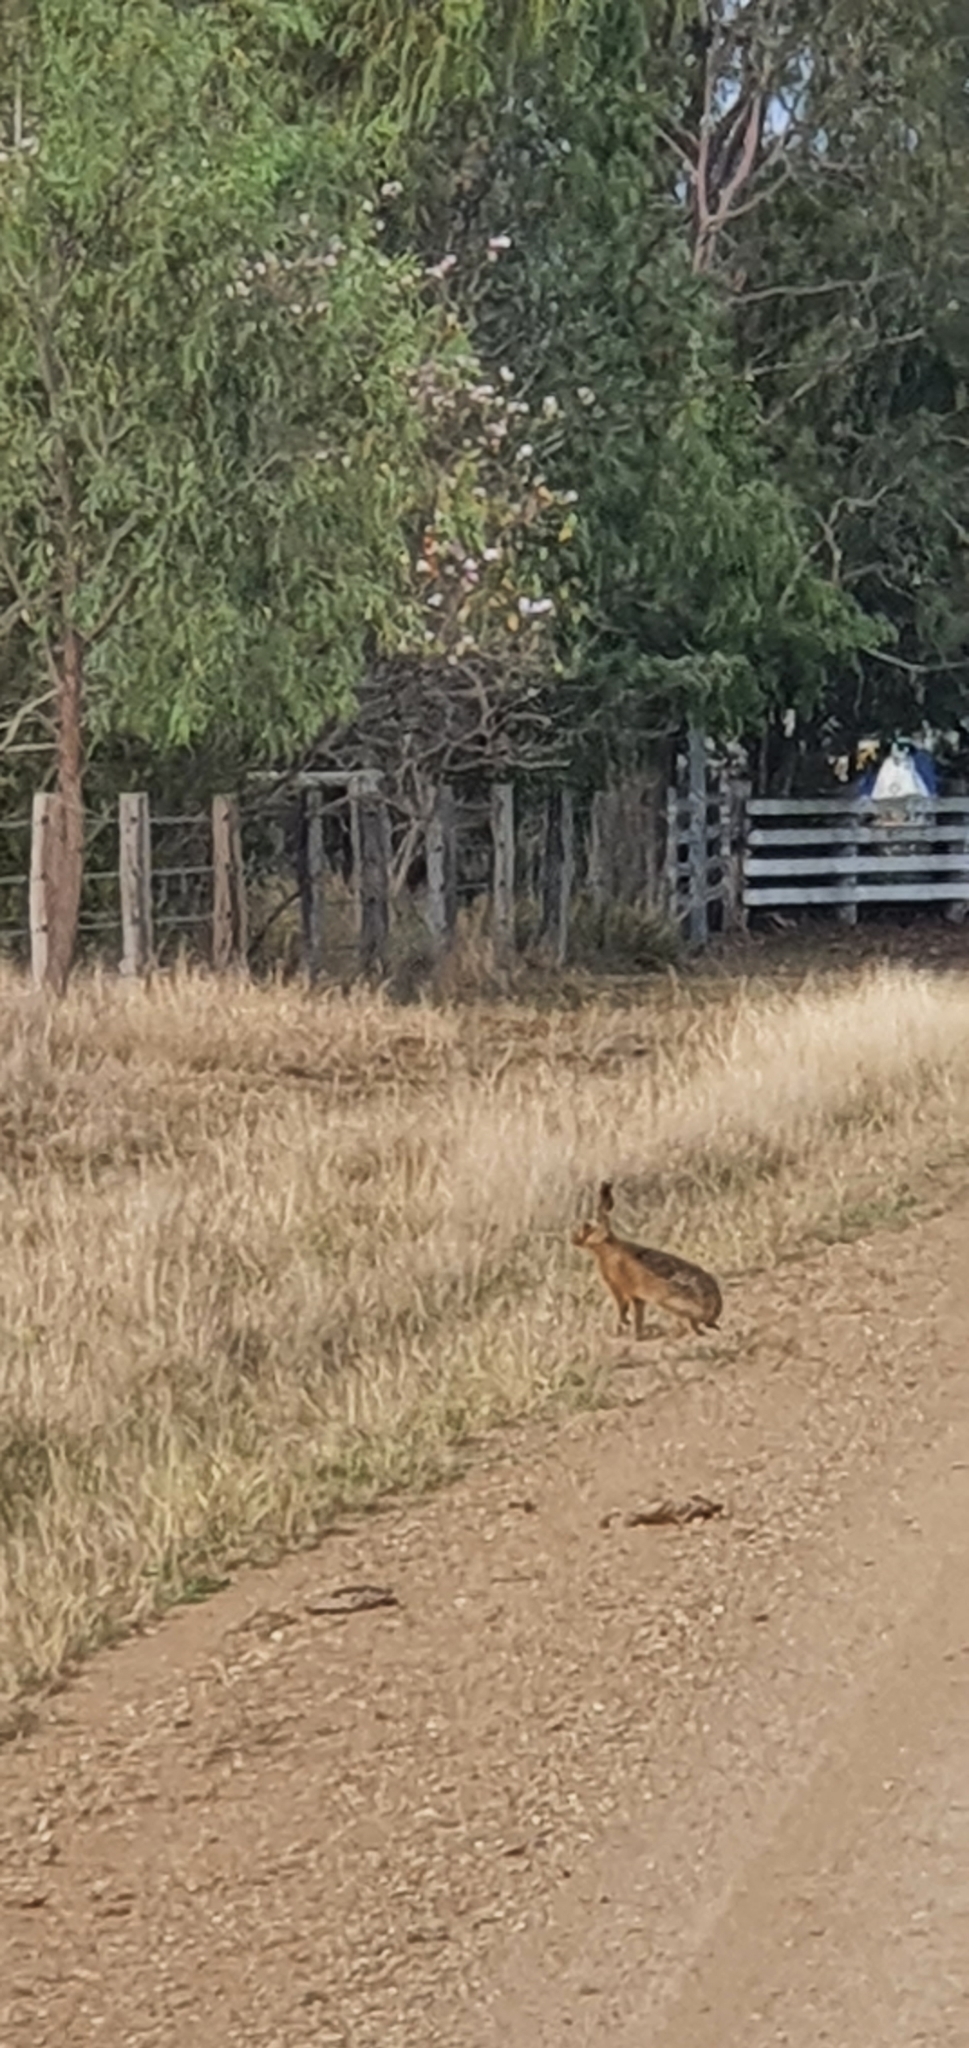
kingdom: Animalia
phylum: Chordata
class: Mammalia
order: Lagomorpha
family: Leporidae
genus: Lepus
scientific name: Lepus europaeus
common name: European hare
